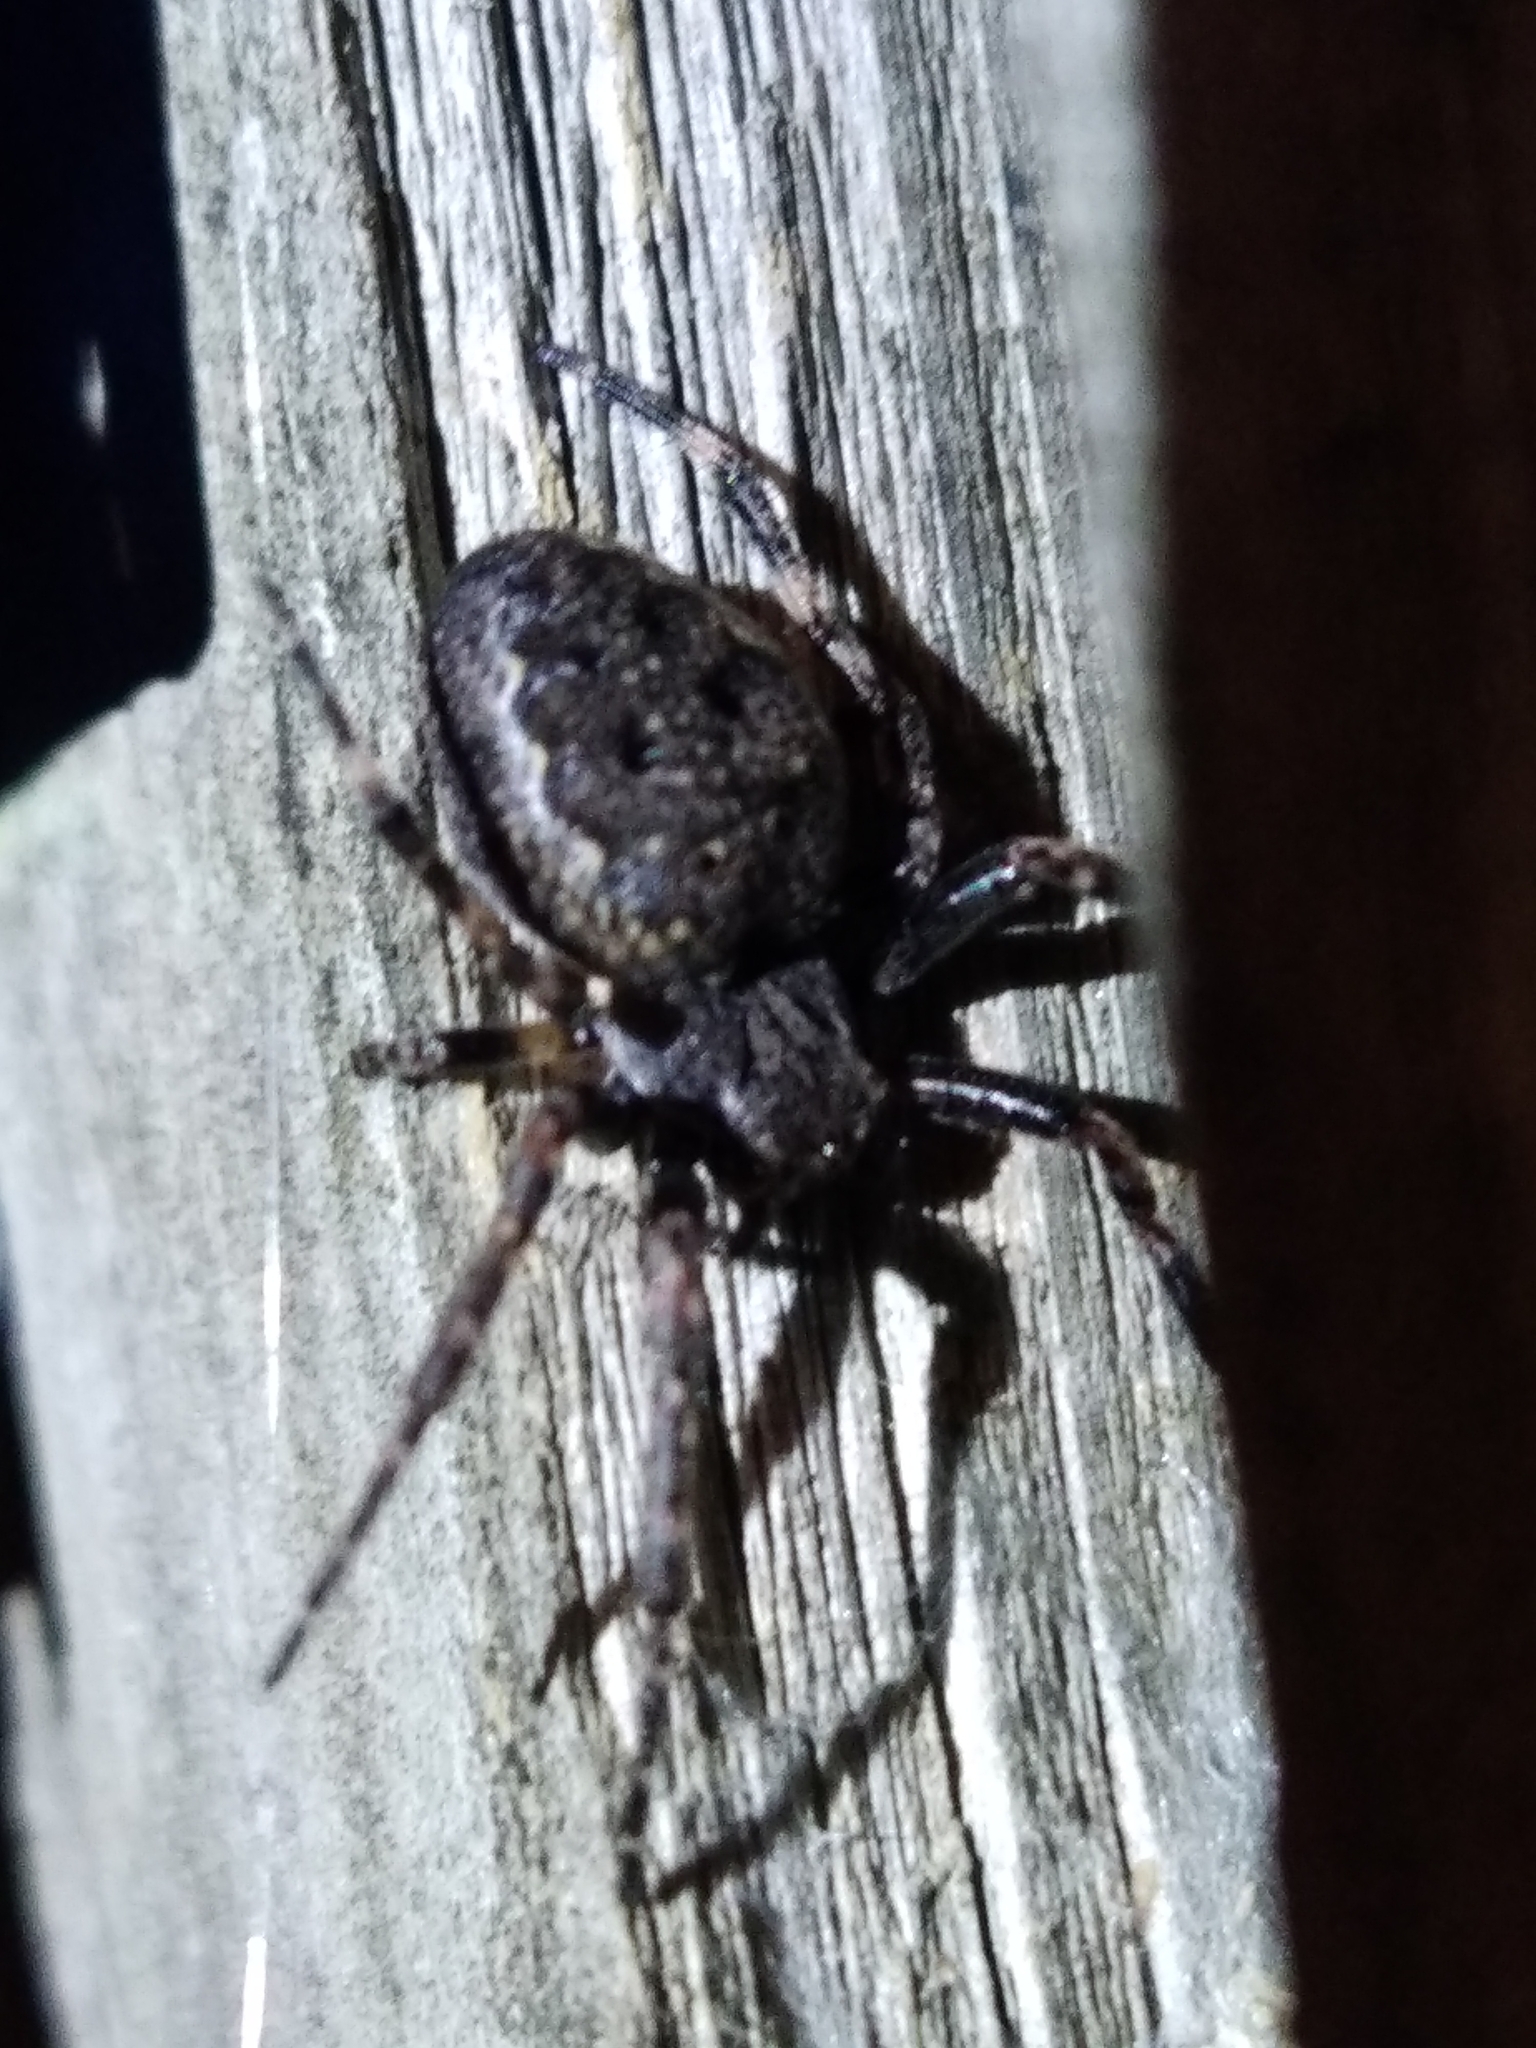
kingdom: Animalia
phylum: Arthropoda
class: Arachnida
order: Araneae
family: Araneidae
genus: Nuctenea
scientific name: Nuctenea umbratica
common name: Toad spider
